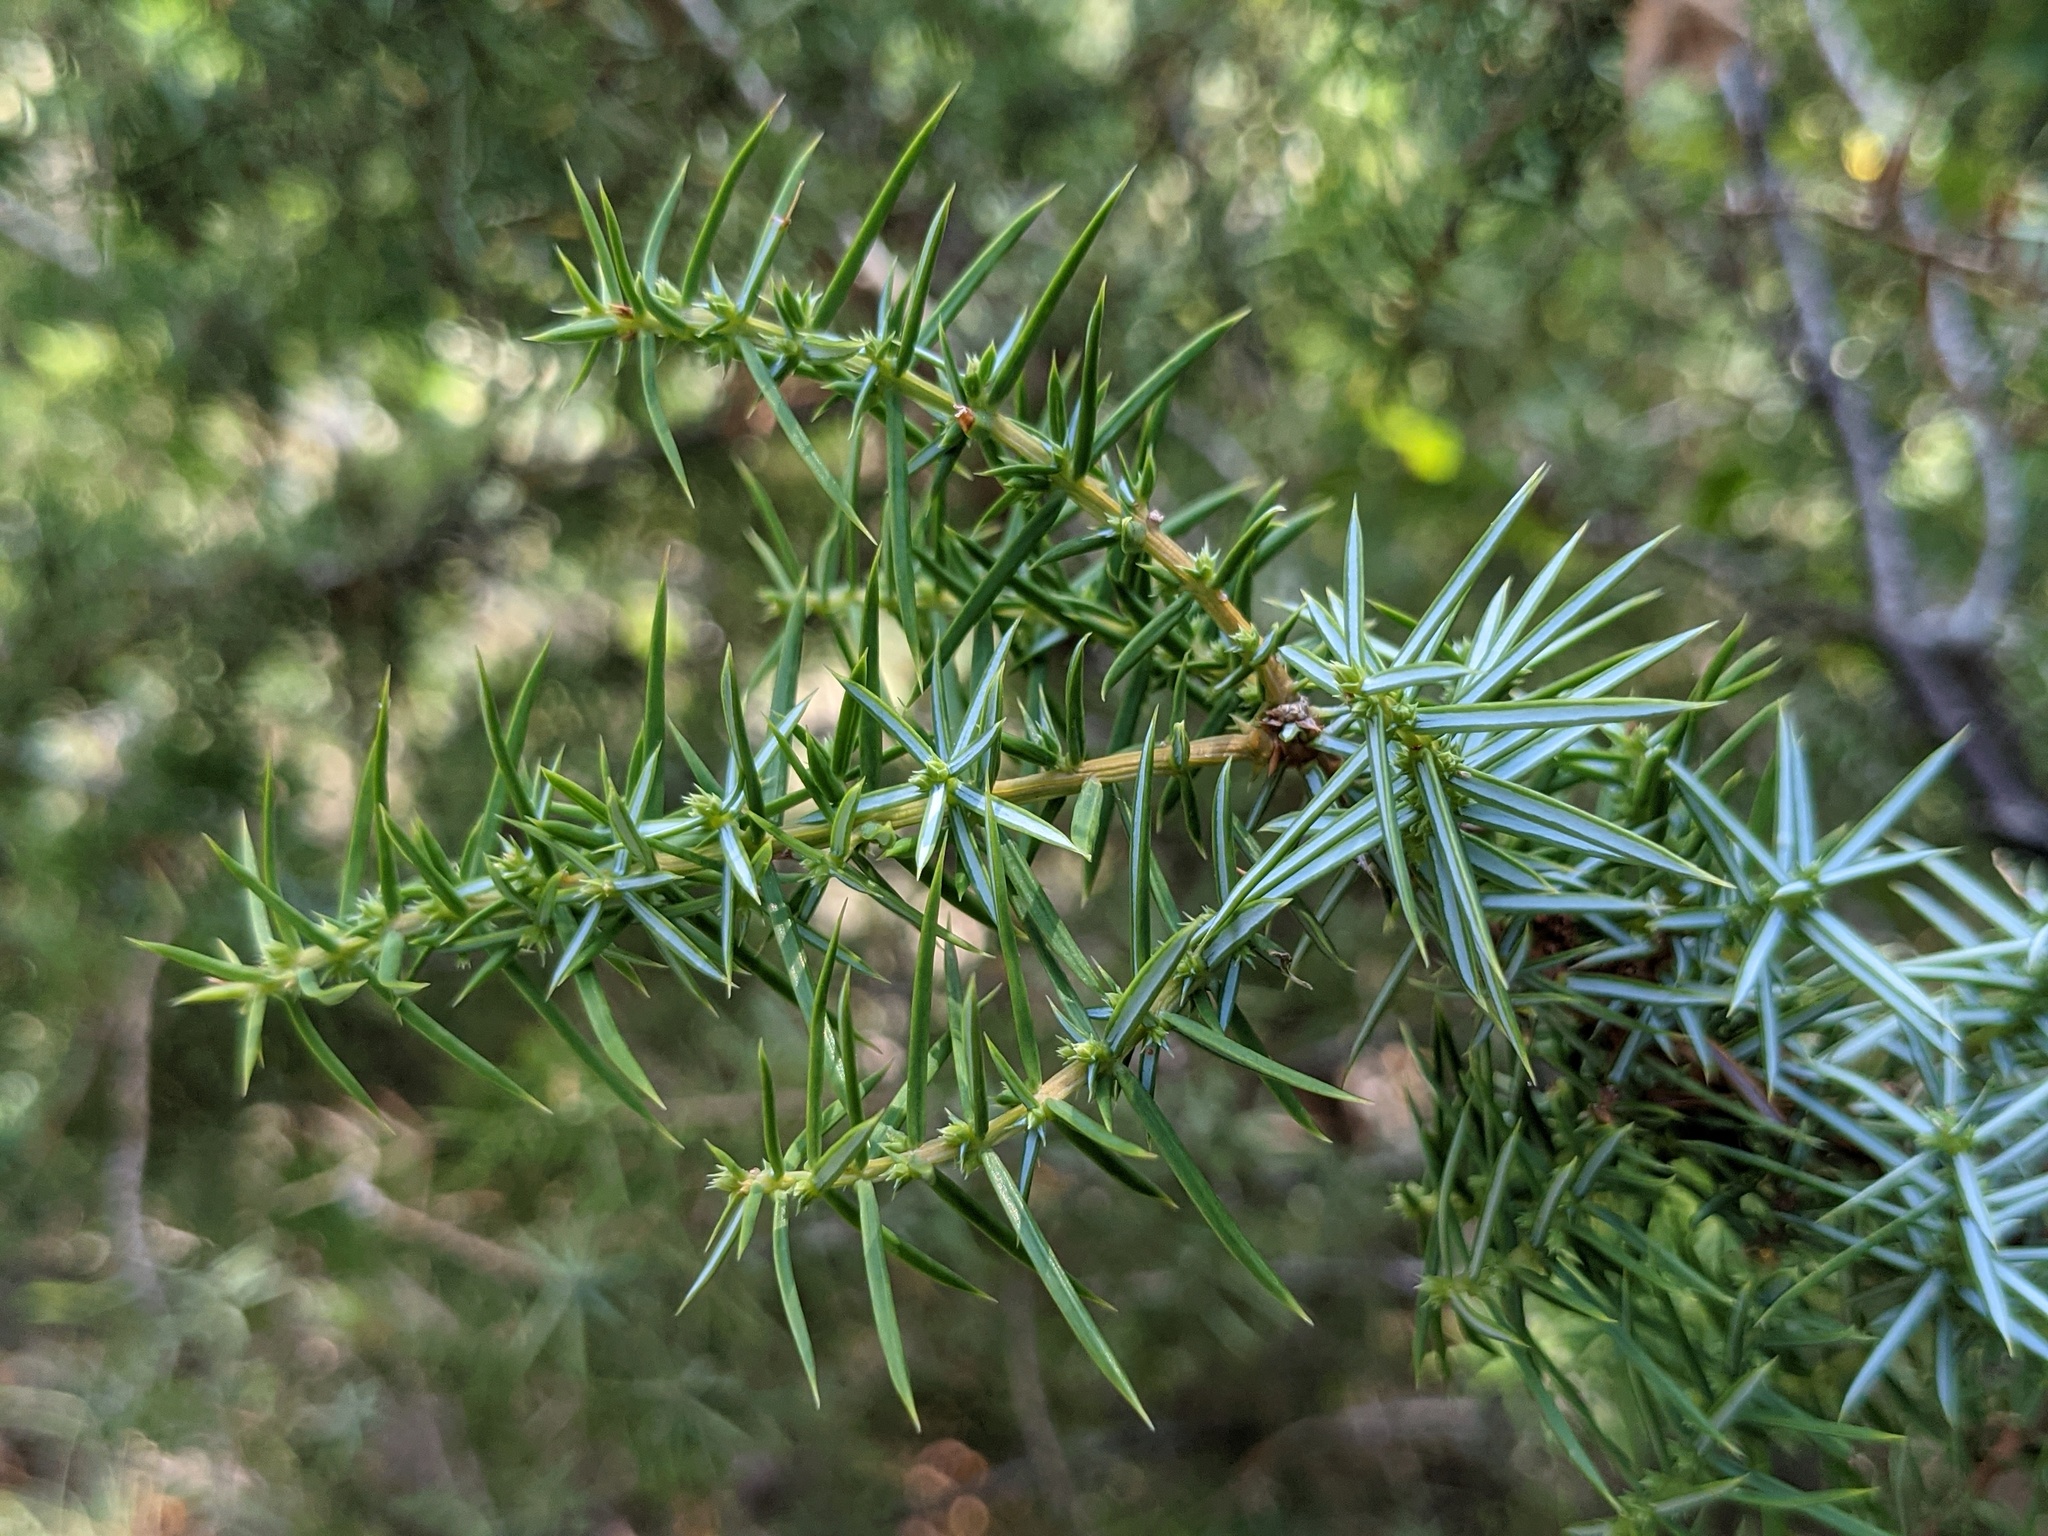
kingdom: Plantae
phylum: Tracheophyta
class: Pinopsida
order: Pinales
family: Cupressaceae
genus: Juniperus
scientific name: Juniperus communis
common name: Common juniper
